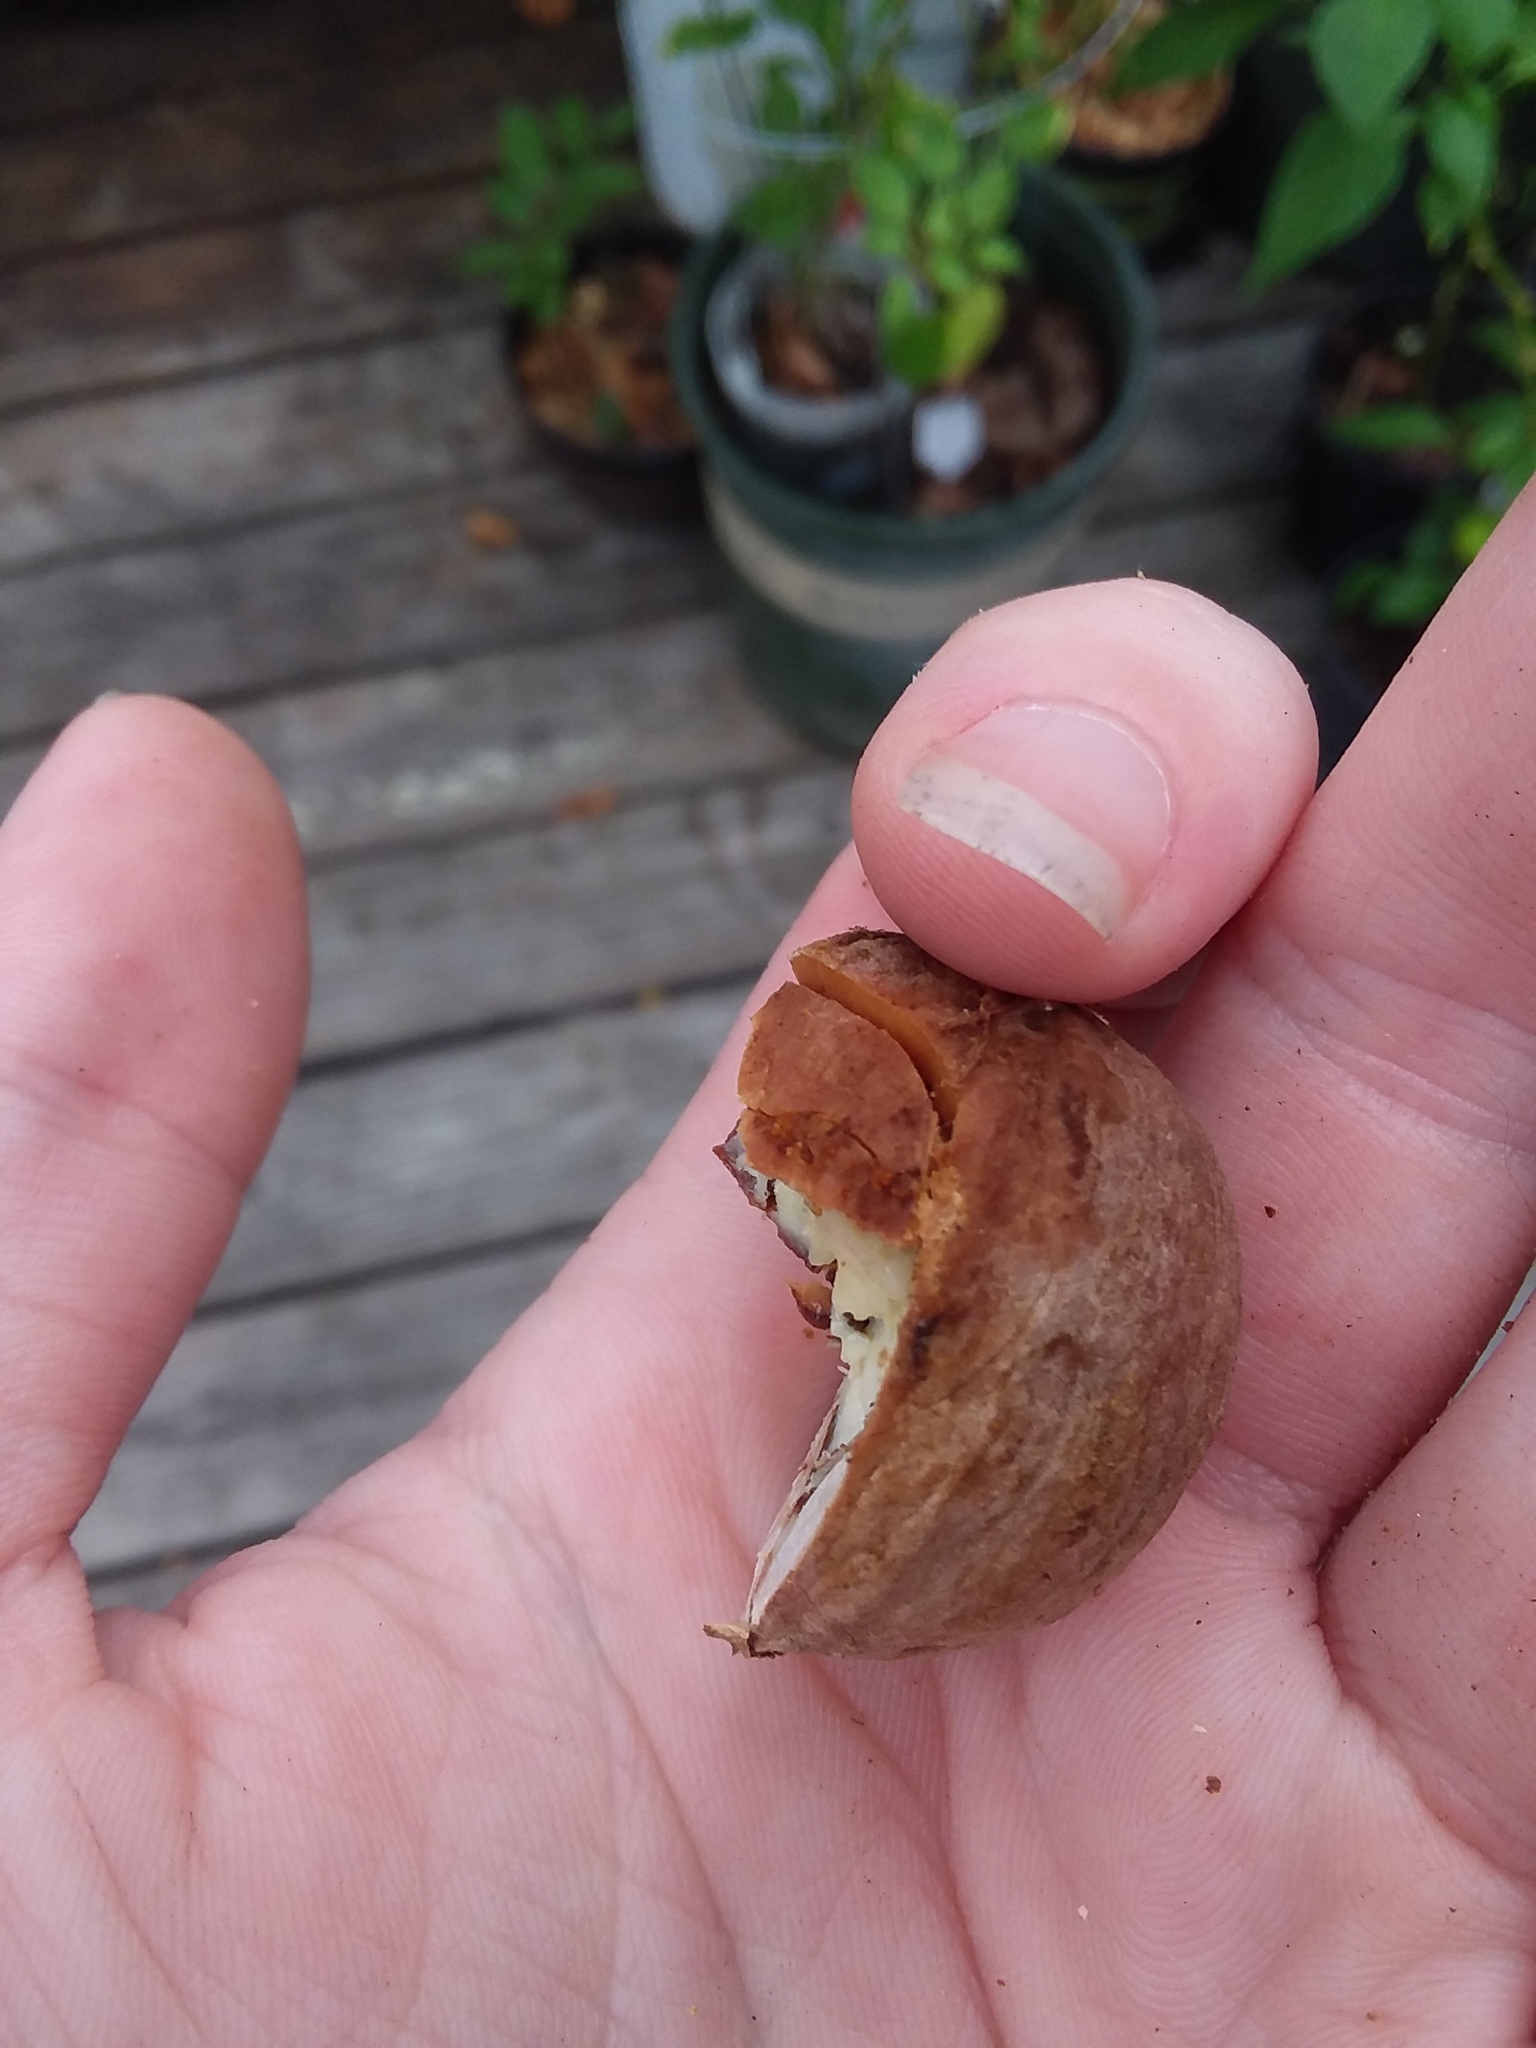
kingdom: Plantae
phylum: Tracheophyta
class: Magnoliopsida
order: Fagales
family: Juglandaceae
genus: Carya
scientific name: Carya glabra
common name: Pignut hickory
